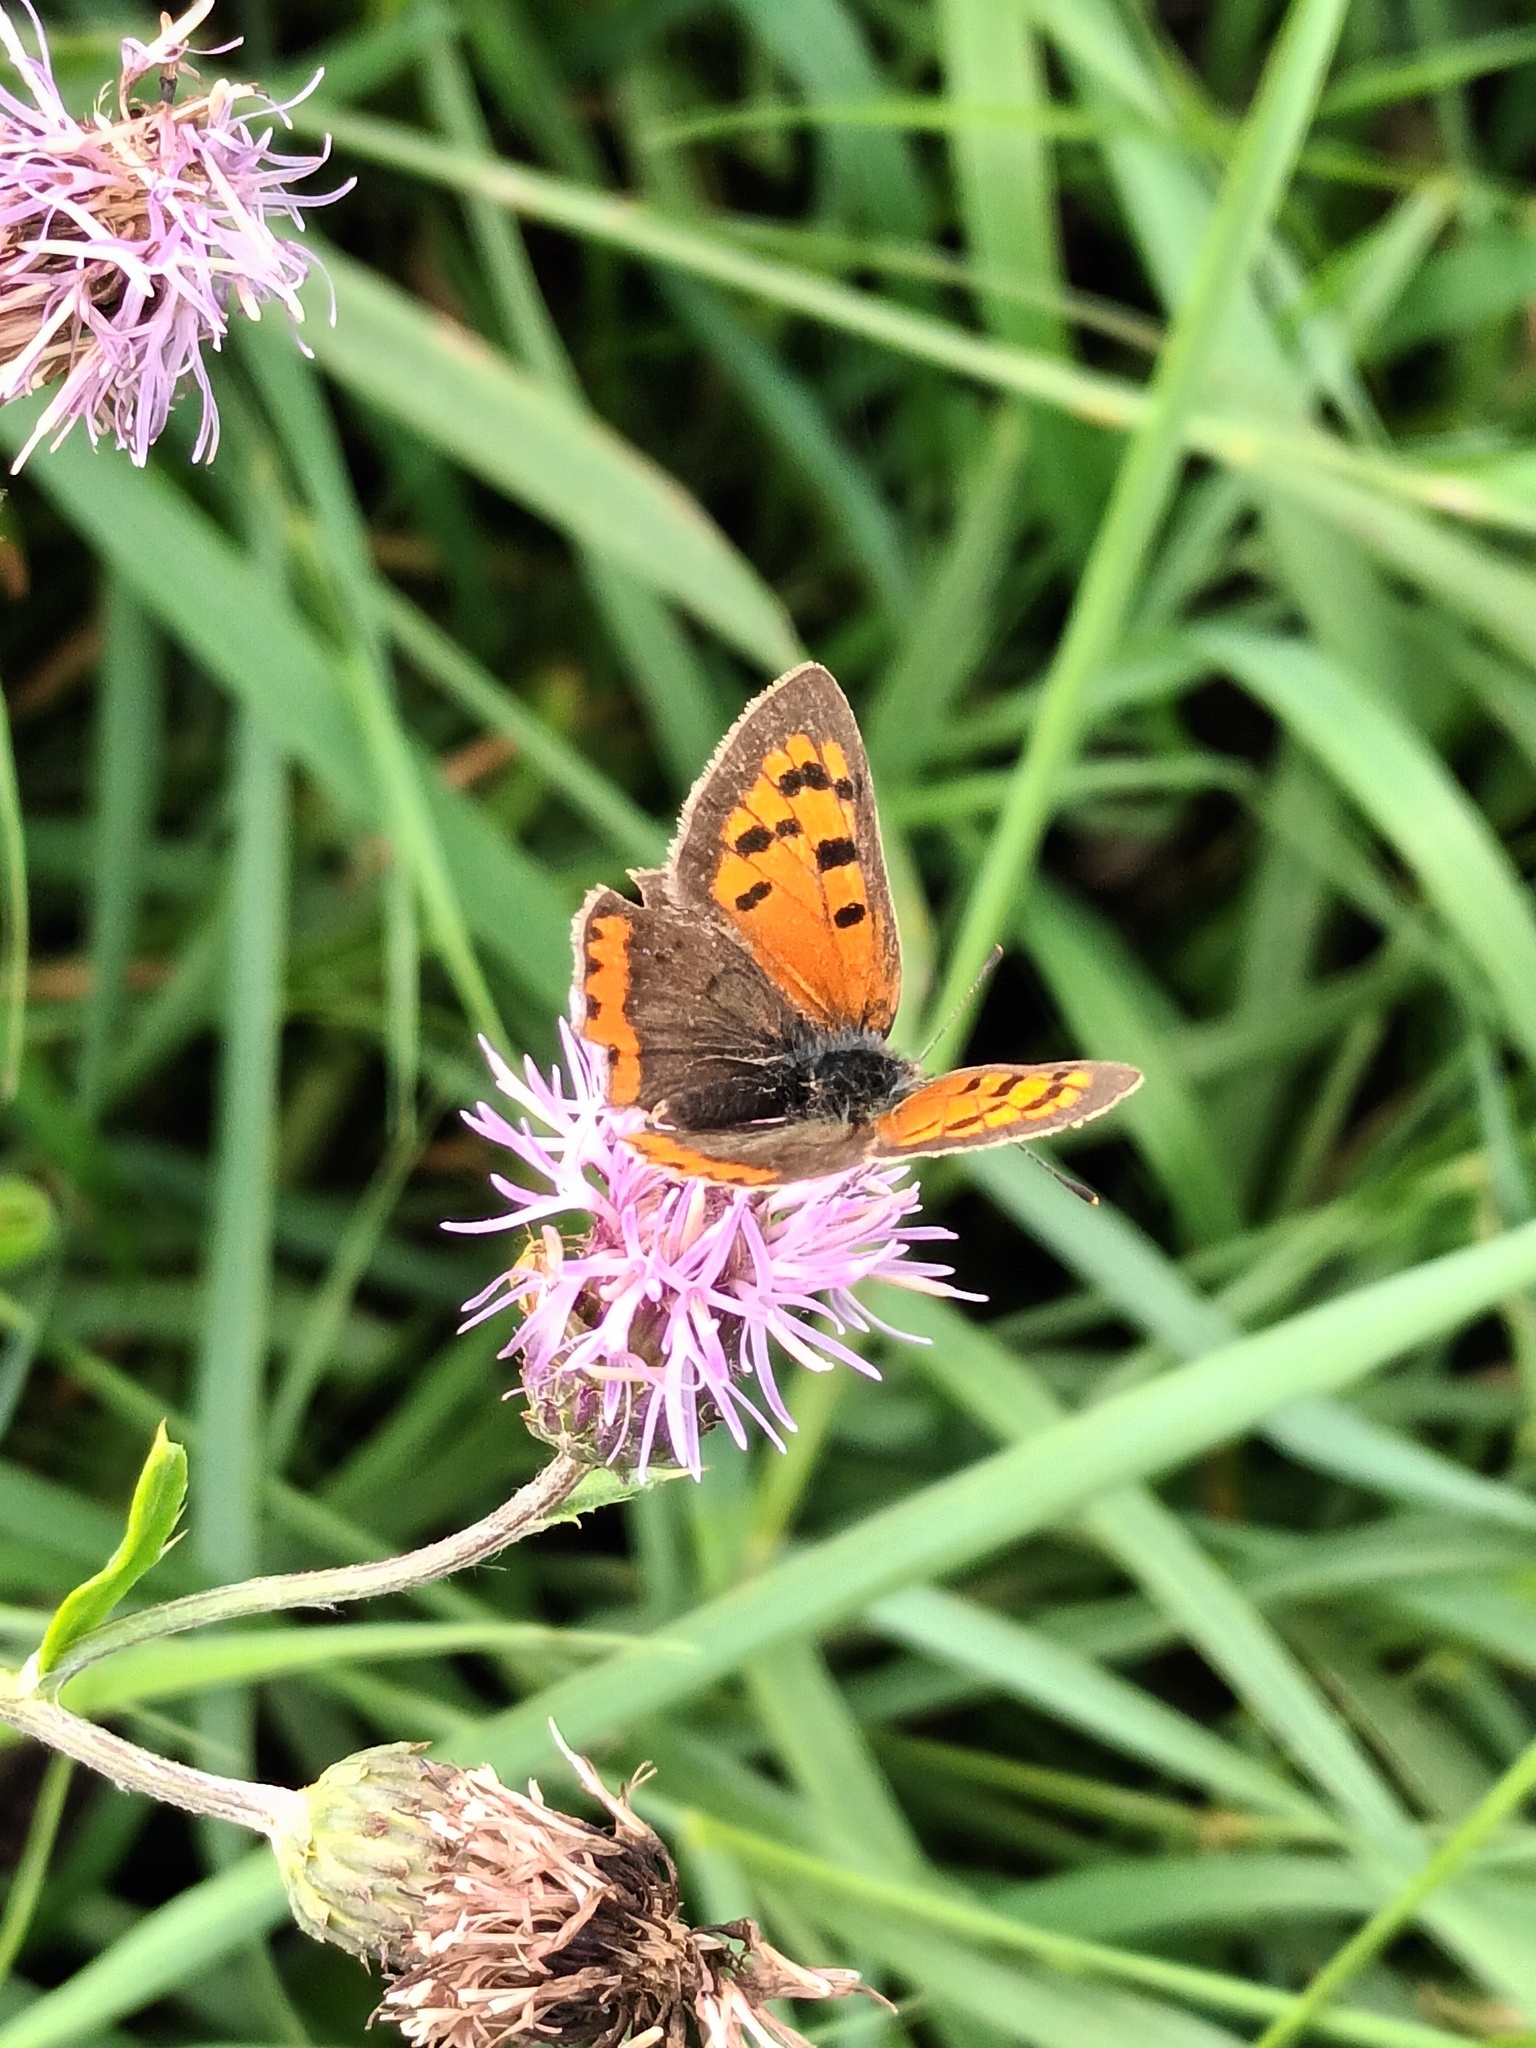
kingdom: Animalia
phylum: Arthropoda
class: Insecta
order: Lepidoptera
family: Lycaenidae
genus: Lycaena
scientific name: Lycaena phlaeas
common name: Small copper
